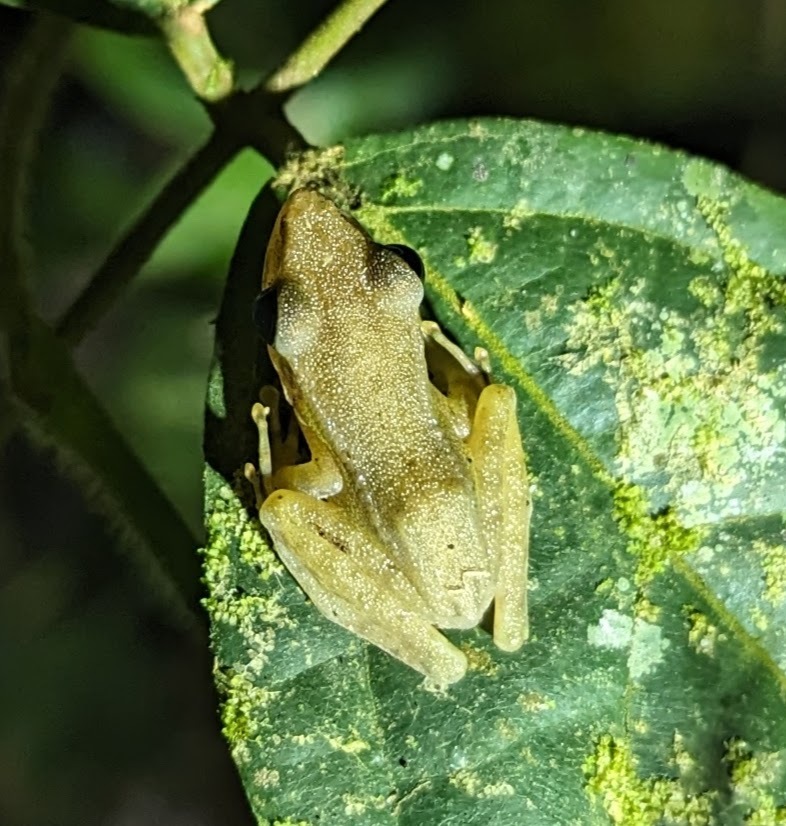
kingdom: Animalia
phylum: Chordata
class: Amphibia
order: Anura
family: Ranidae
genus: Chalcorana
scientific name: Chalcorana raniceps
